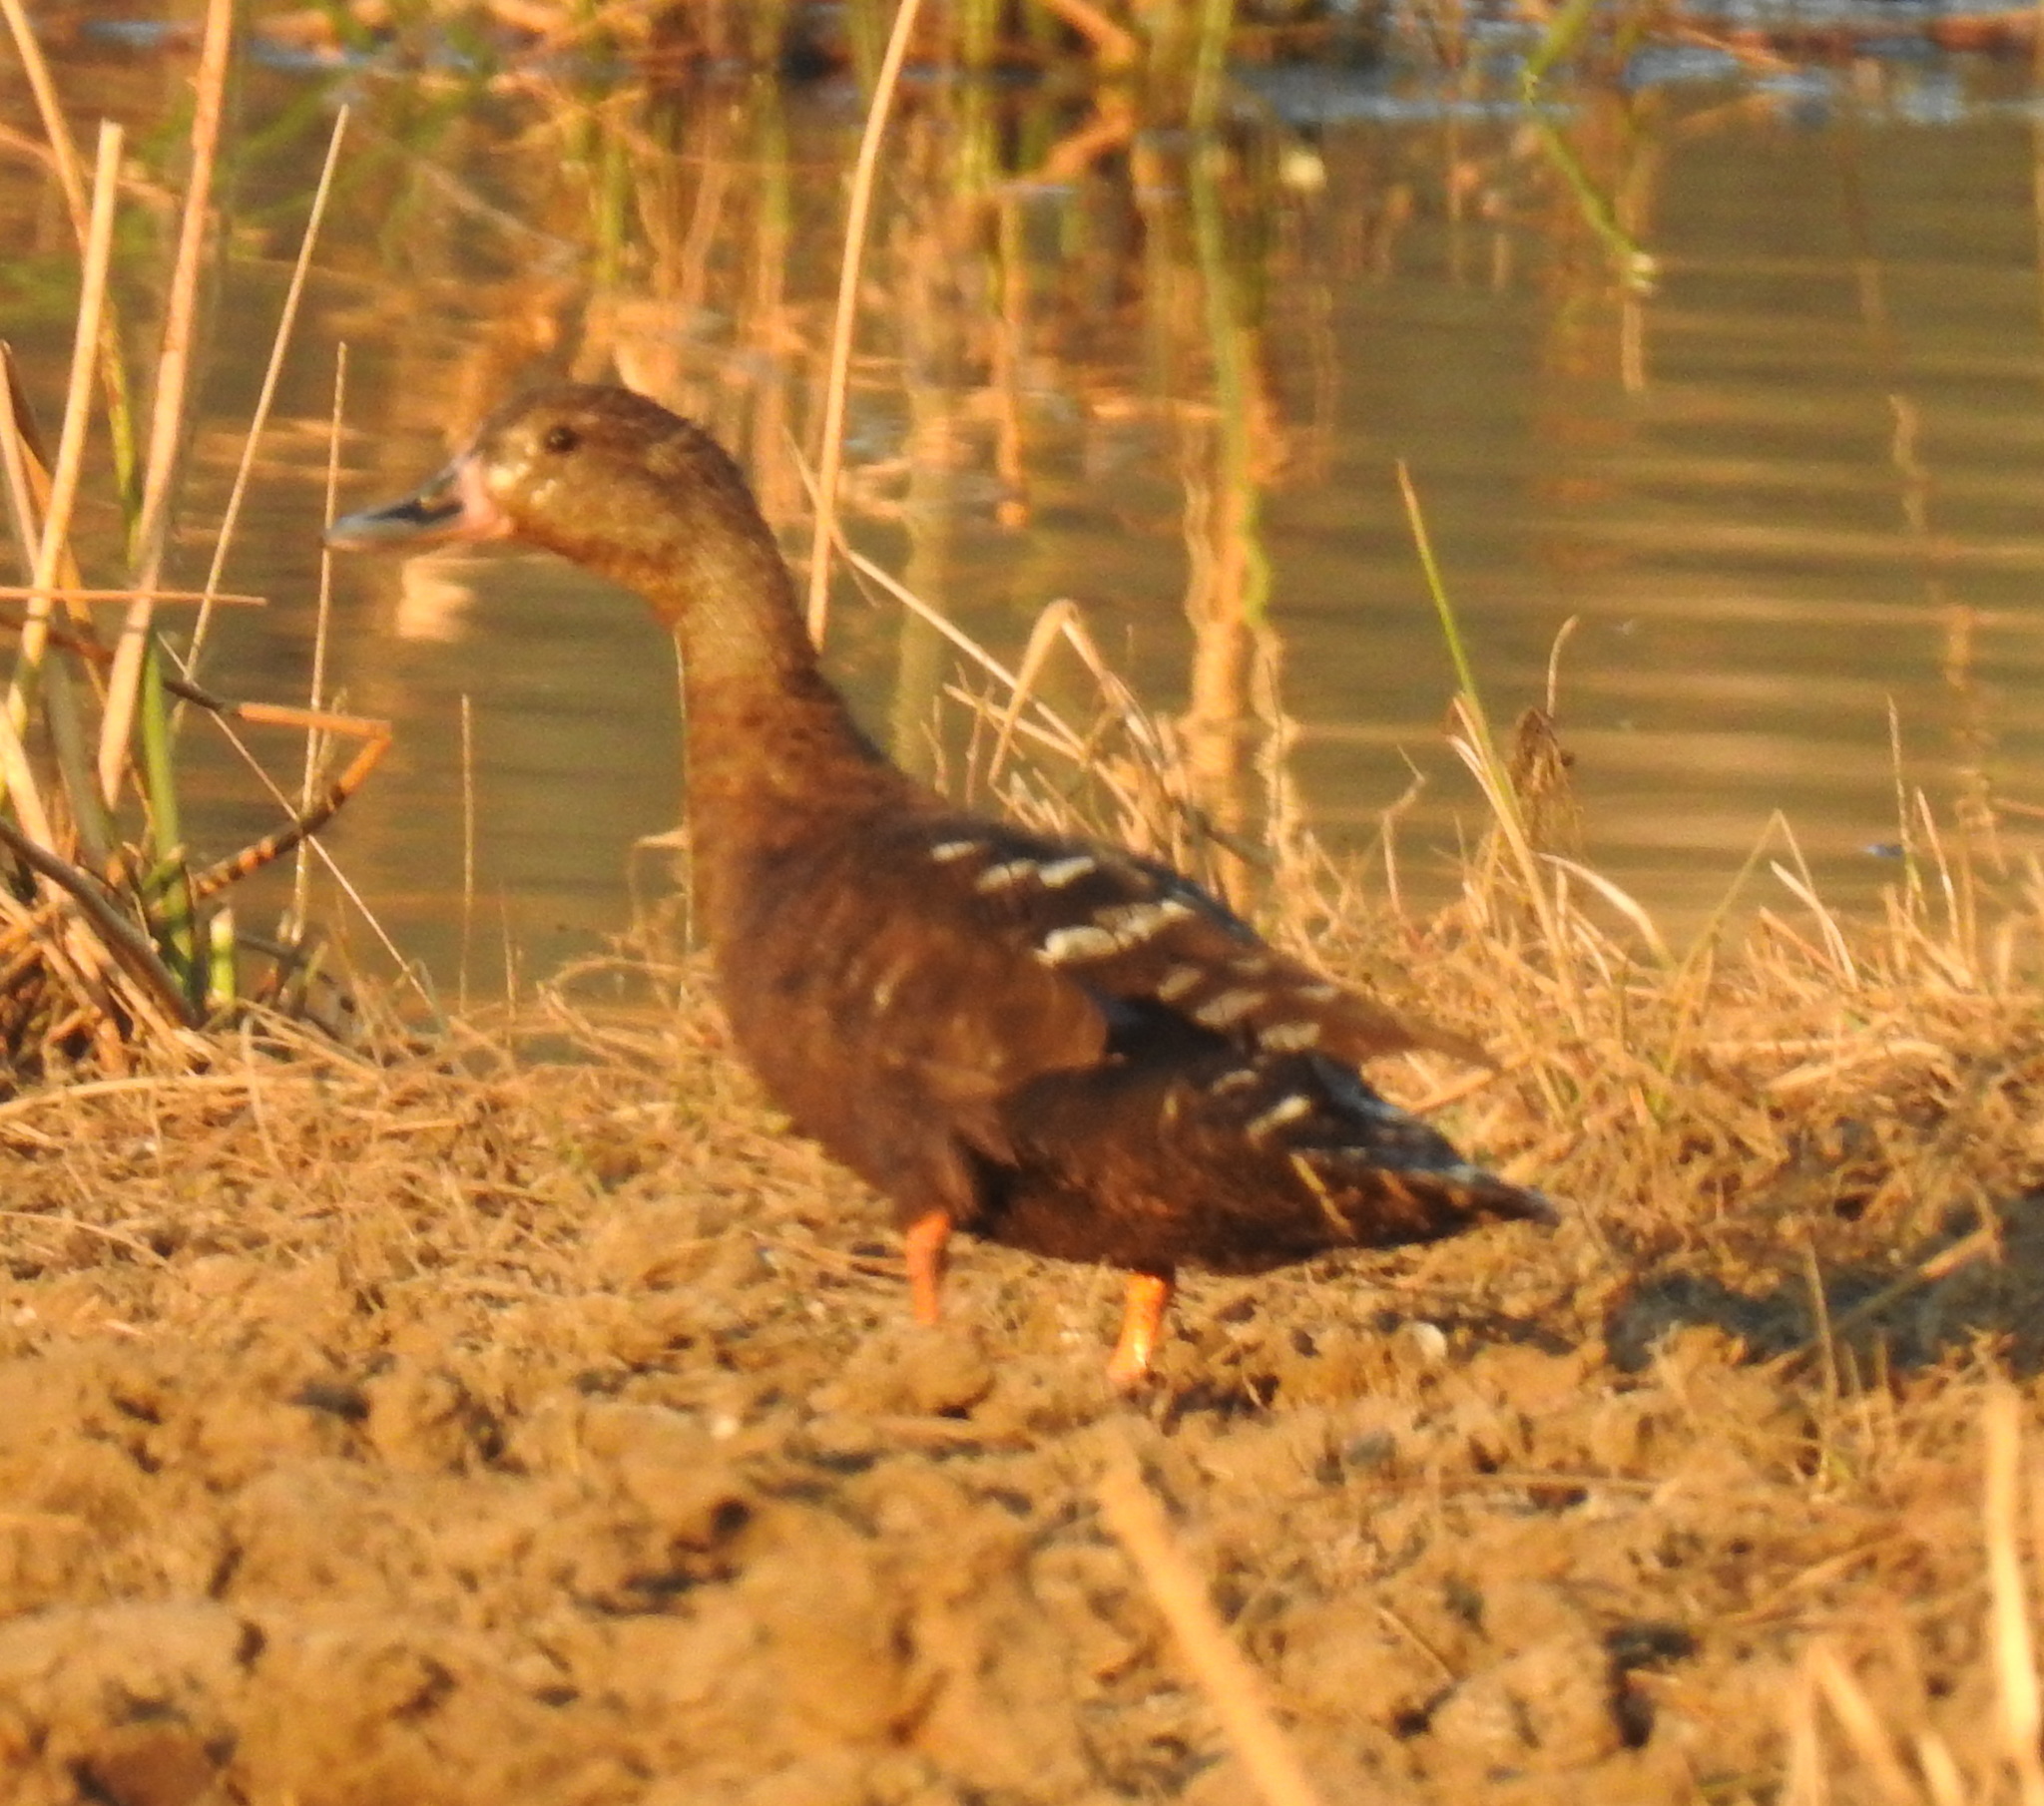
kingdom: Animalia
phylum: Chordata
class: Aves
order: Anseriformes
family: Anatidae
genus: Anas
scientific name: Anas sparsa
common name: African black duck
